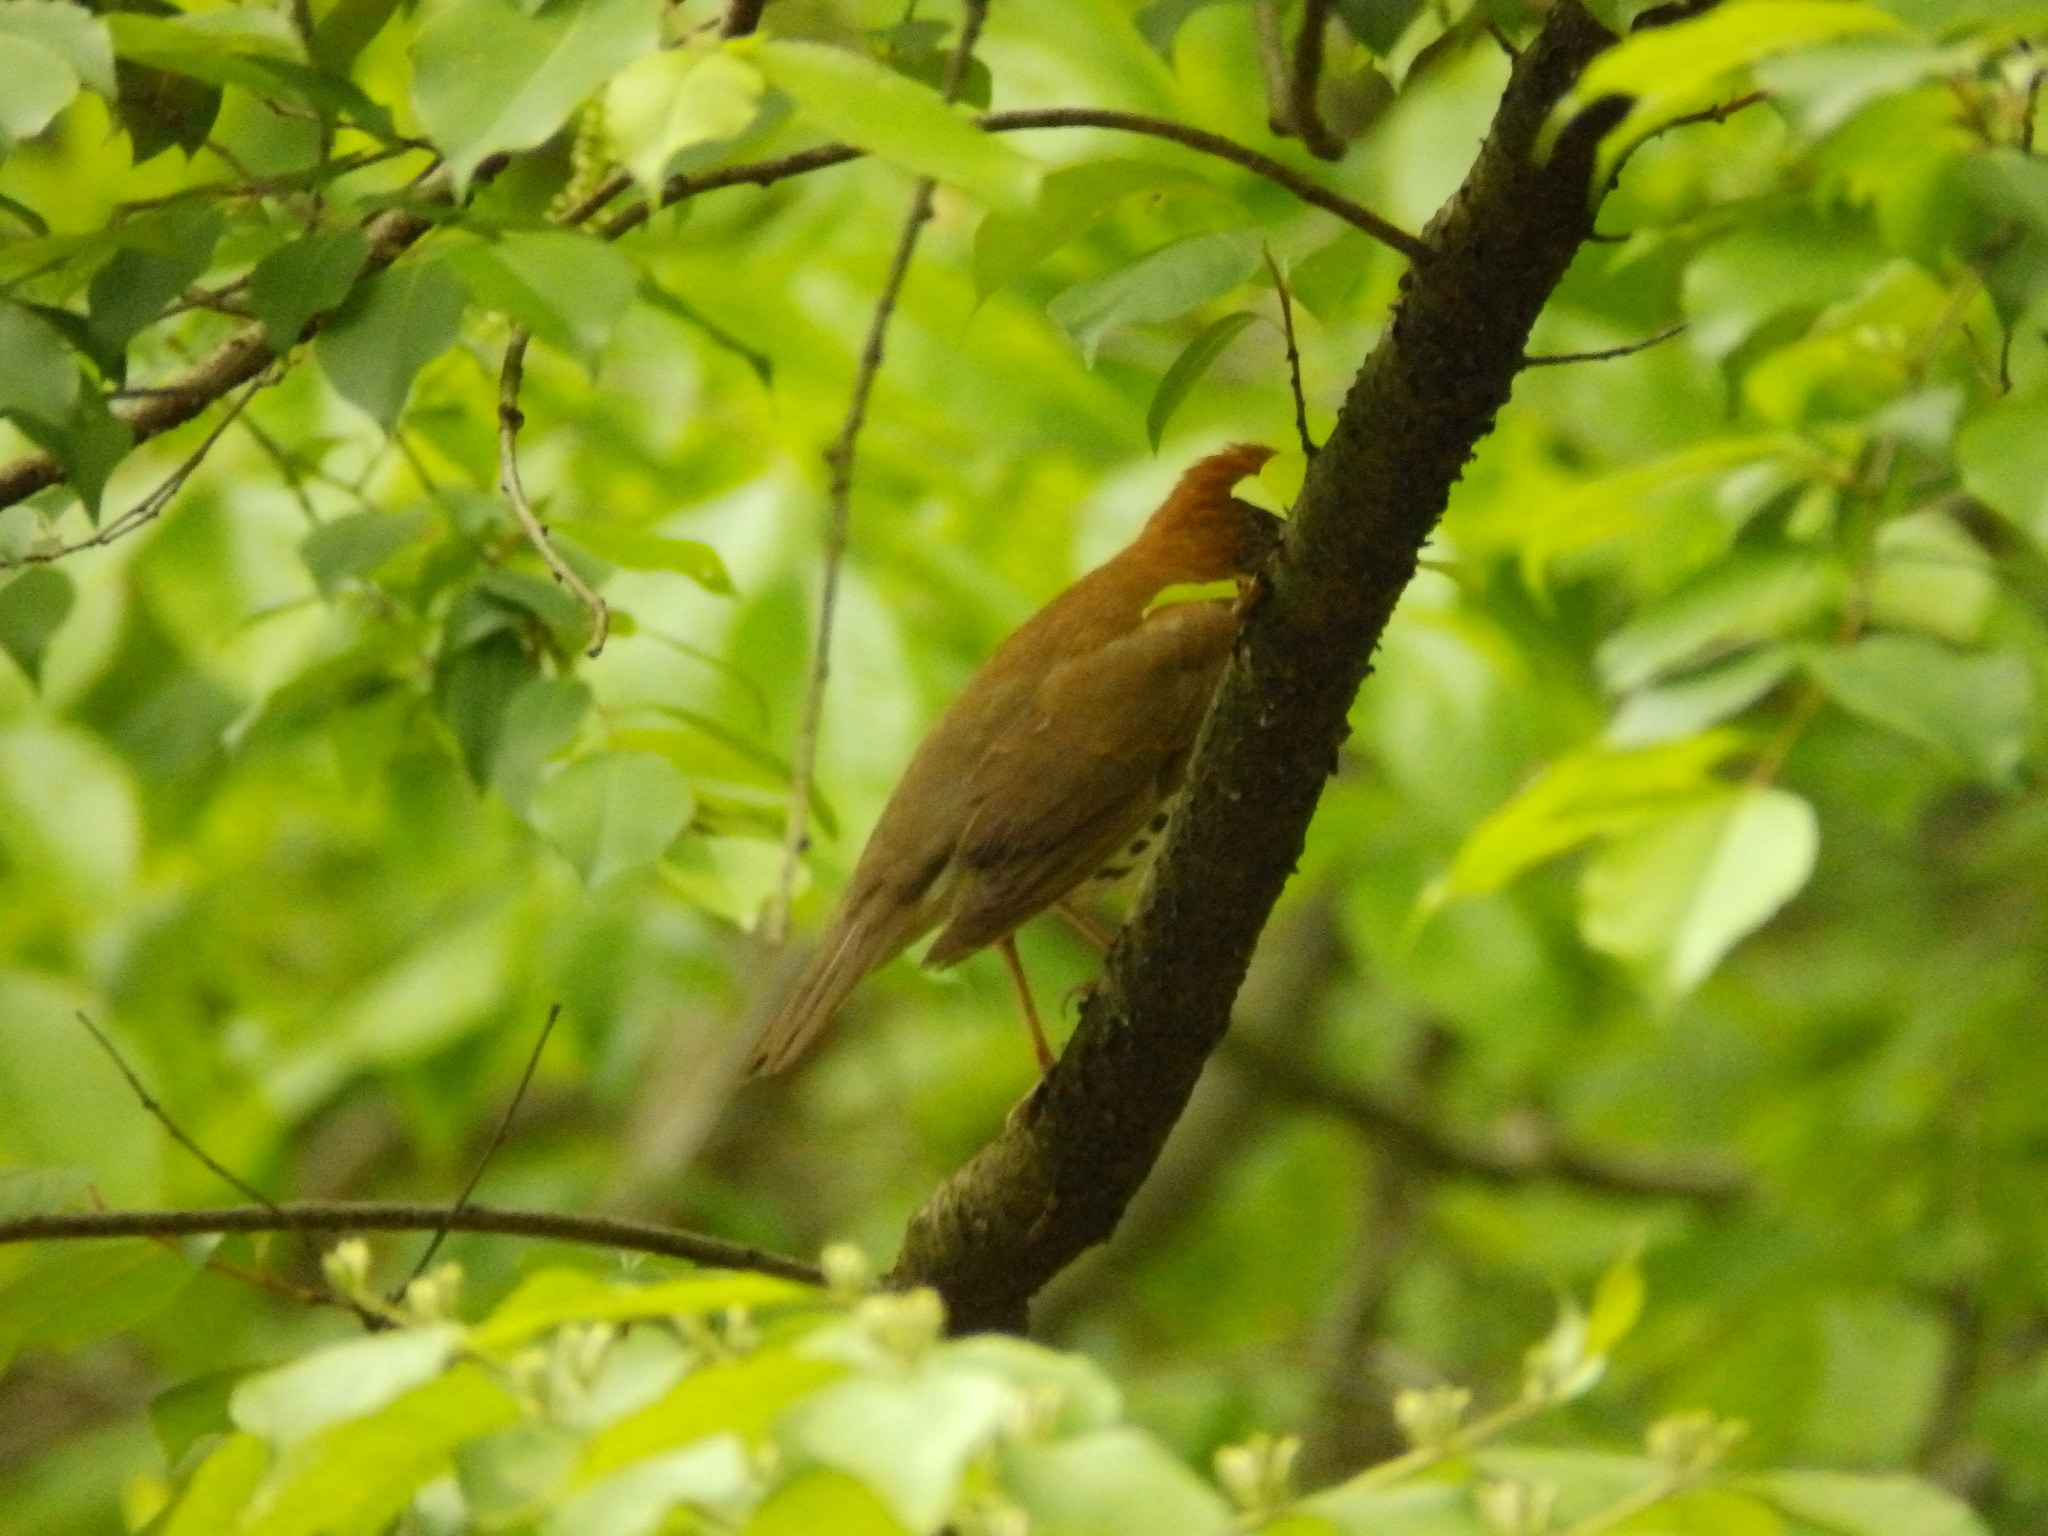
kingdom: Animalia
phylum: Chordata
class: Aves
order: Passeriformes
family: Turdidae
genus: Hylocichla
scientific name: Hylocichla mustelina
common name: Wood thrush
